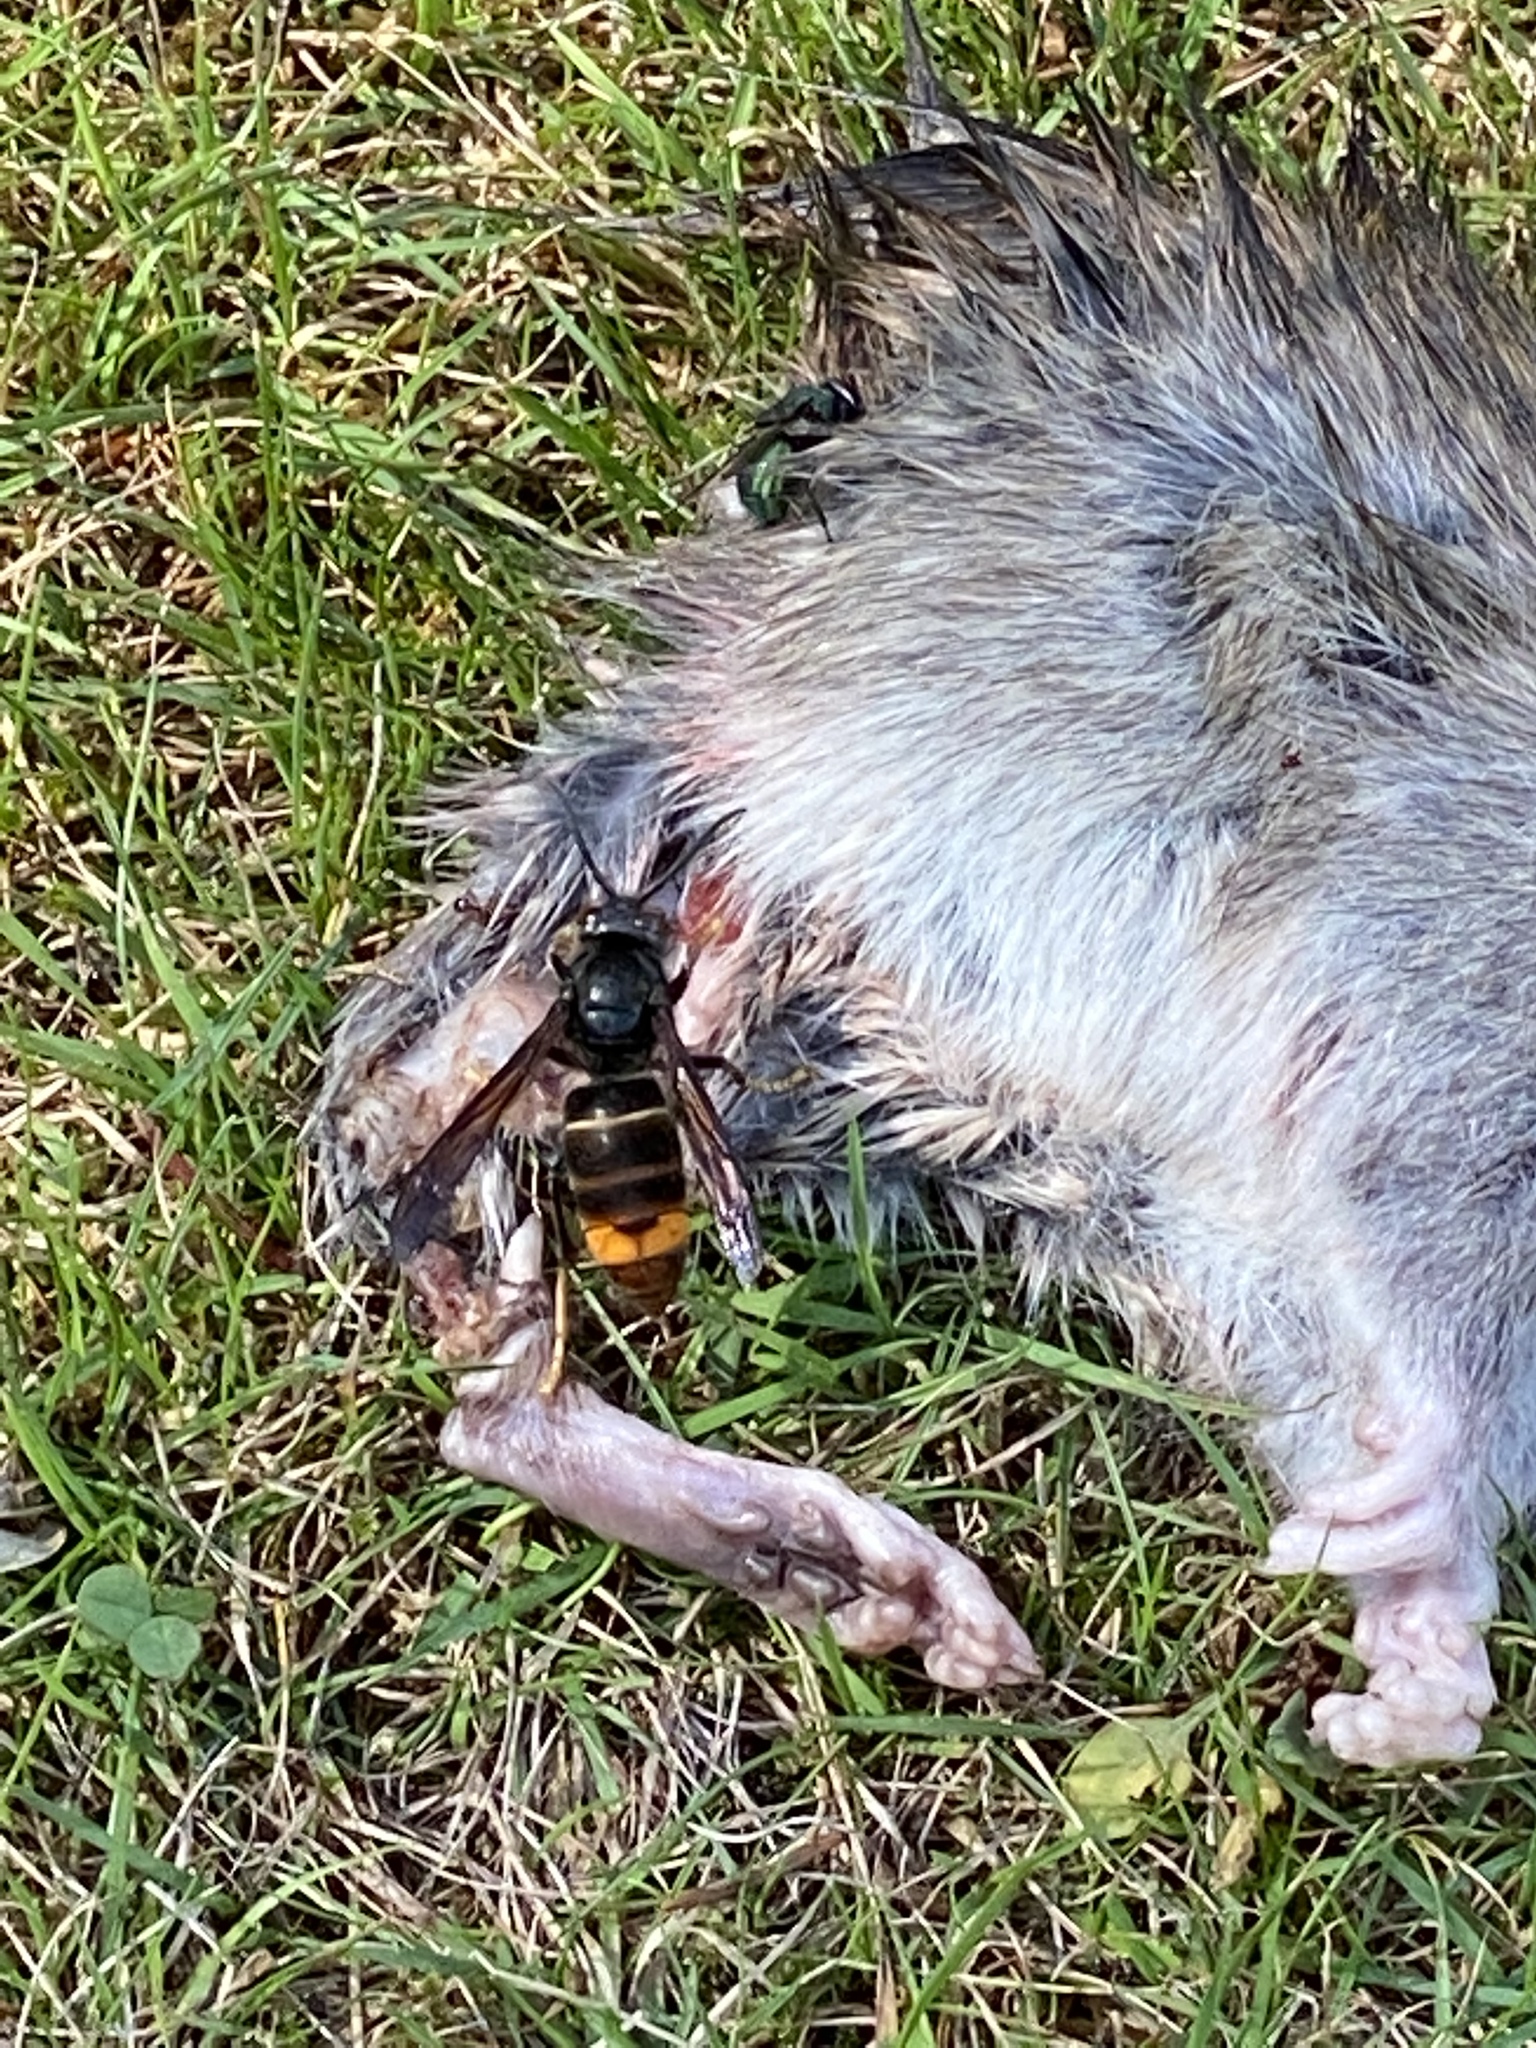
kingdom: Animalia
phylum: Arthropoda
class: Insecta
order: Hymenoptera
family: Vespidae
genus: Vespa
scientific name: Vespa velutina
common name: Asian hornet
